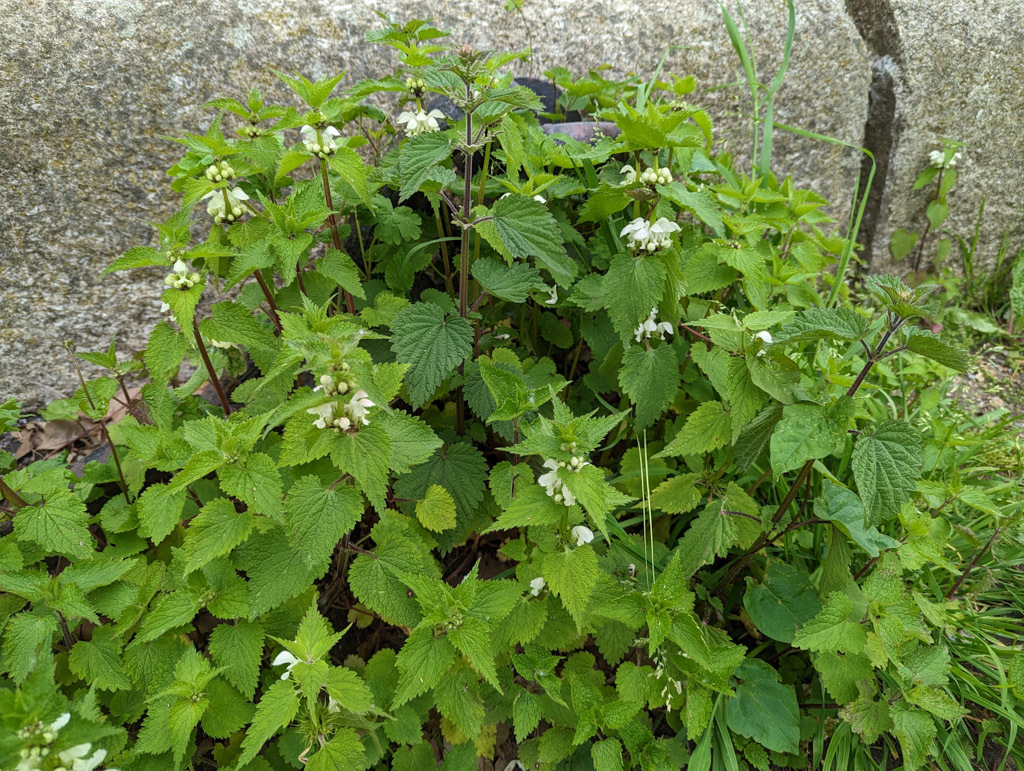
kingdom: Plantae
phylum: Tracheophyta
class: Magnoliopsida
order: Lamiales
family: Lamiaceae
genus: Lamium
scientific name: Lamium album
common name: White dead-nettle
